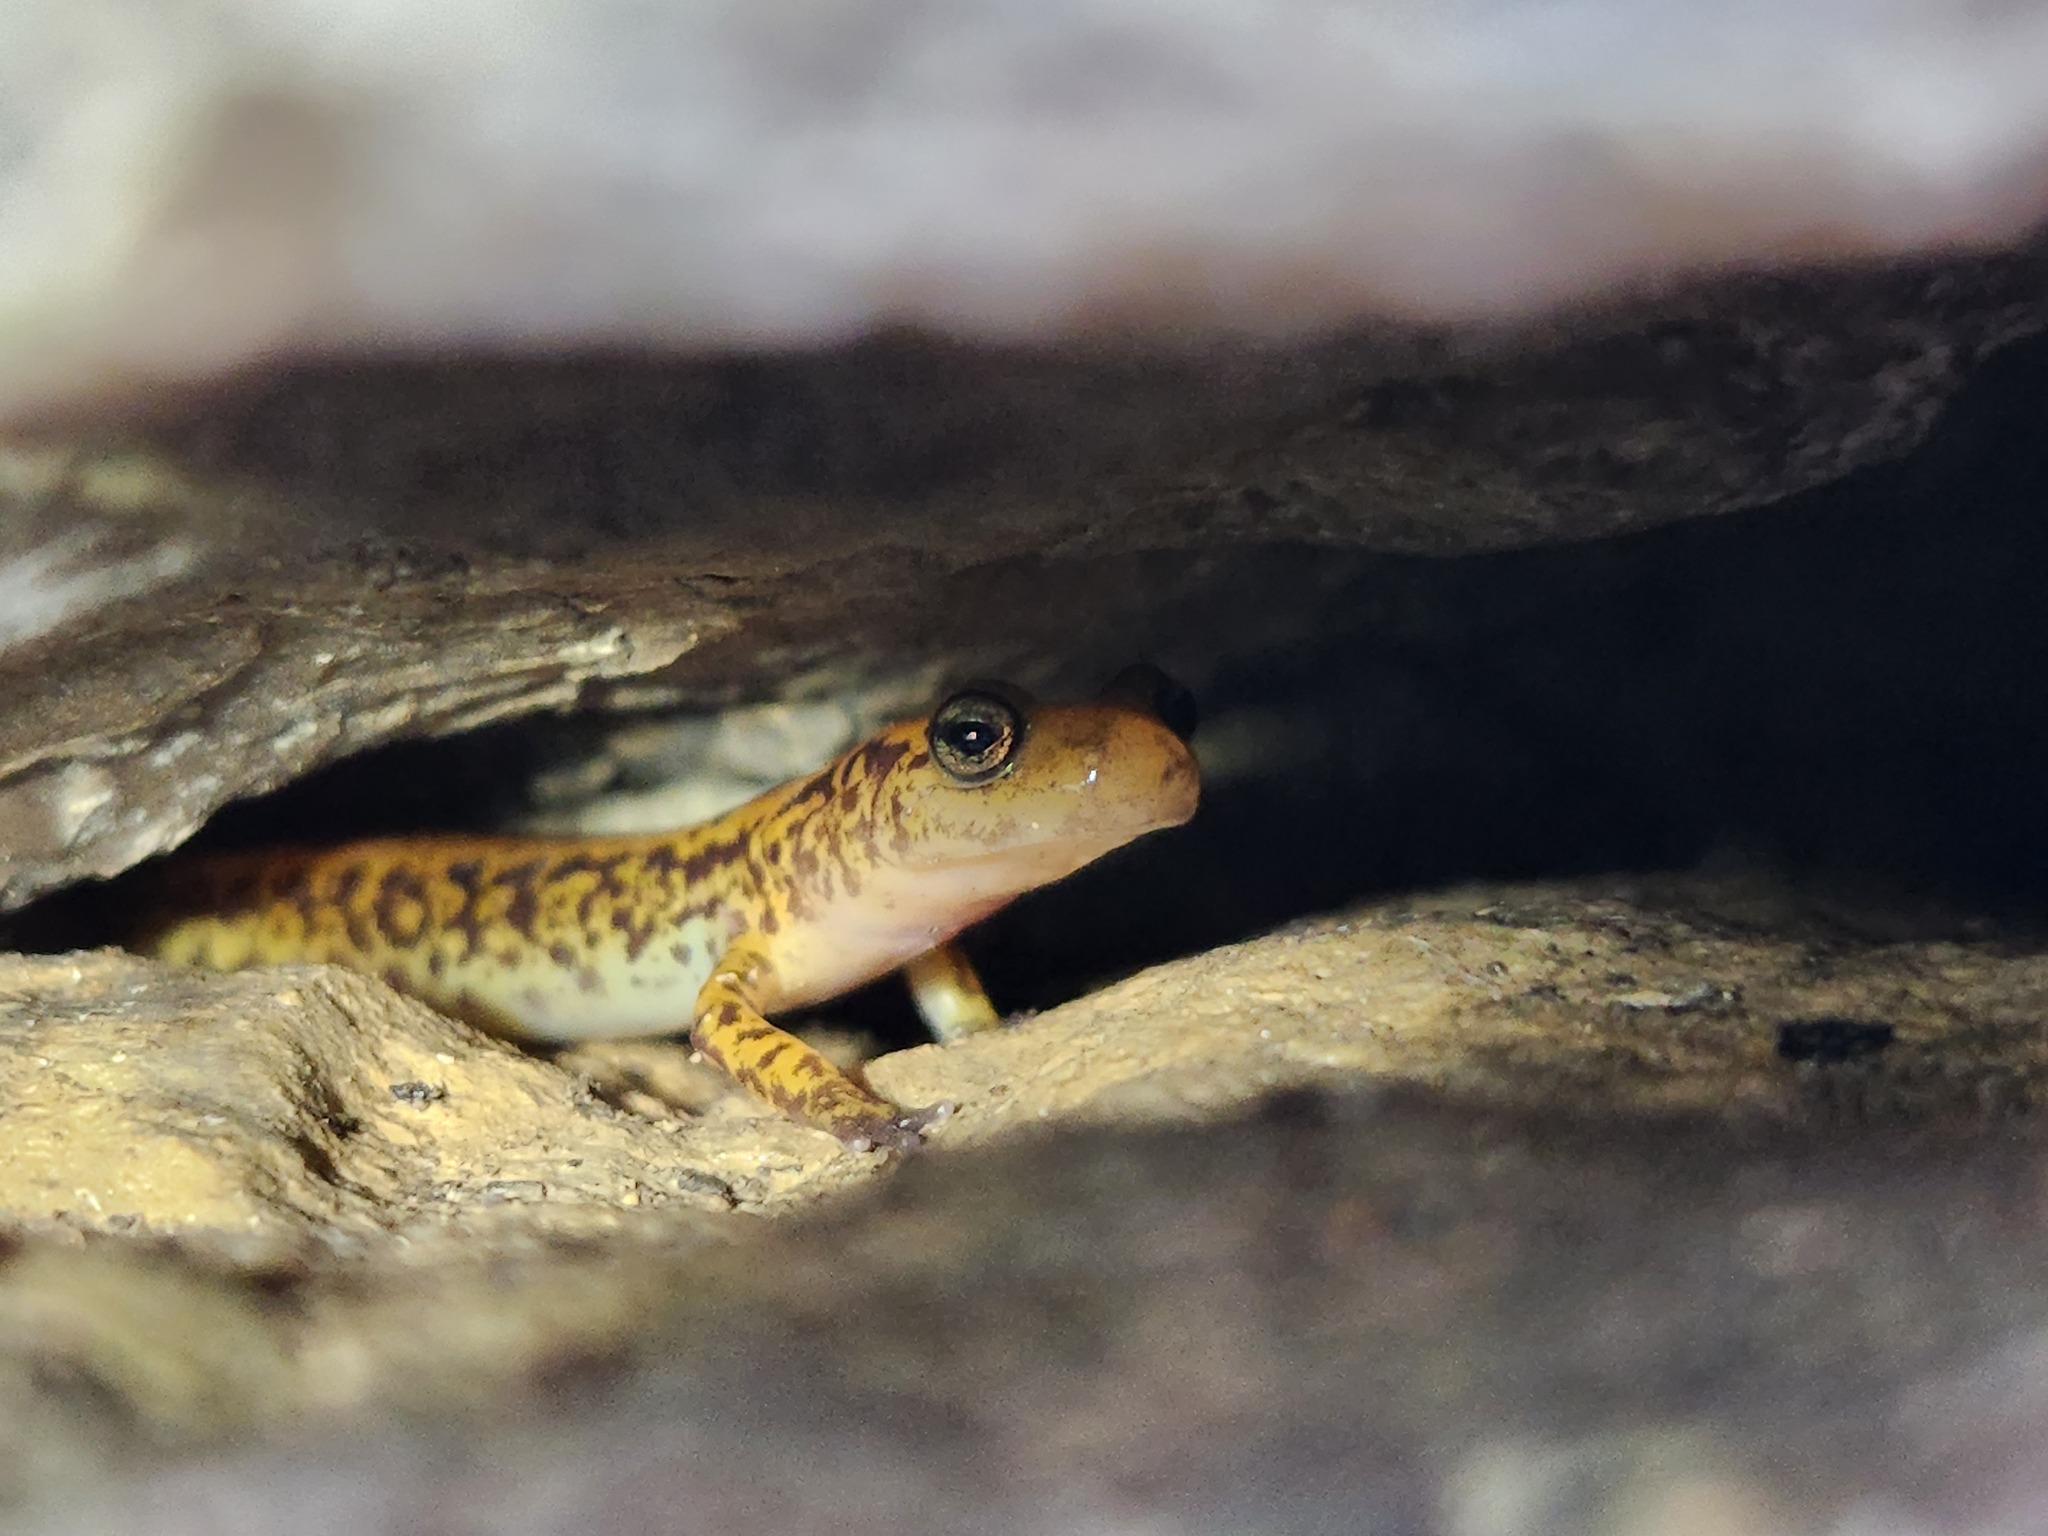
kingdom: Animalia
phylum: Chordata
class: Amphibia
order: Caudata
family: Plethodontidae
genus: Eurycea
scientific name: Eurycea longicauda
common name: Long-tailed salamander
